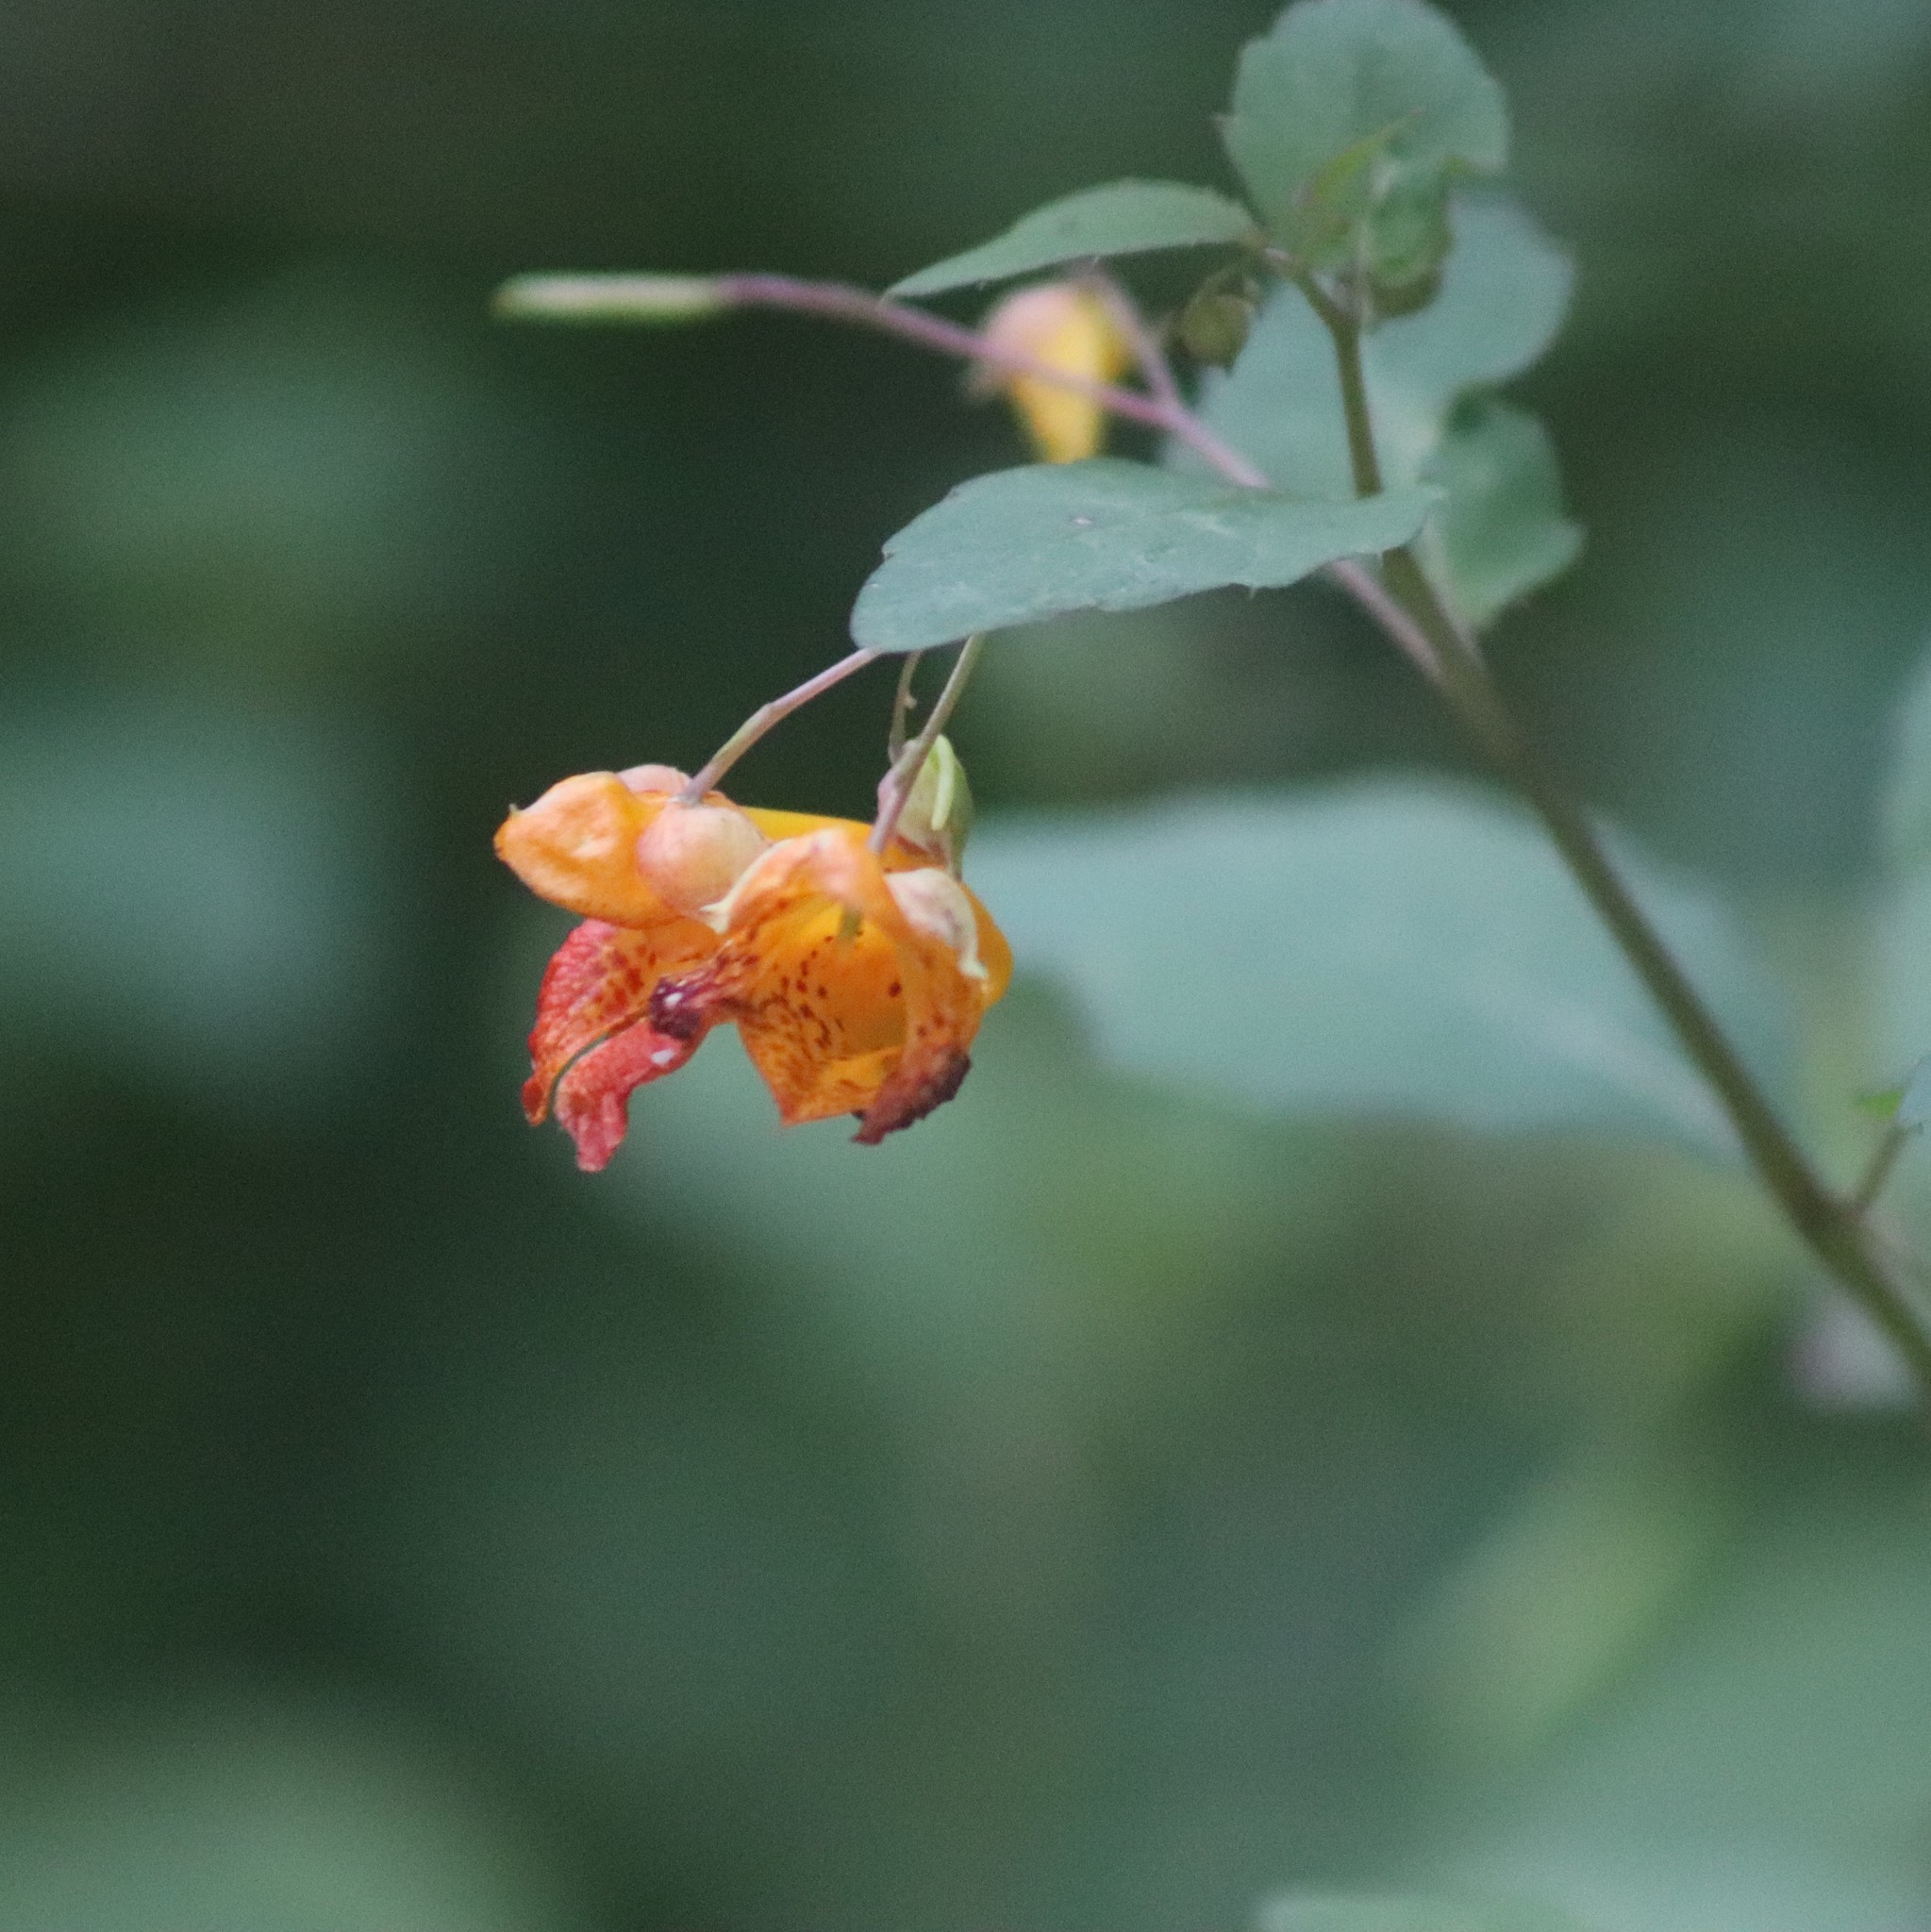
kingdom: Plantae
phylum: Tracheophyta
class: Magnoliopsida
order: Ericales
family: Balsaminaceae
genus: Impatiens
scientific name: Impatiens capensis
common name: Orange balsam
